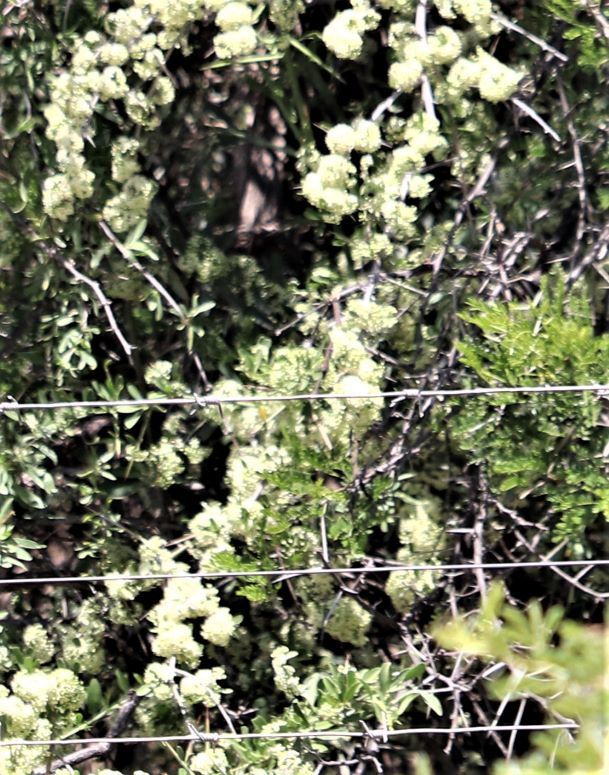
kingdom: Plantae
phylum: Tracheophyta
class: Magnoliopsida
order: Celastrales
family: Celastraceae
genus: Gymnosporia
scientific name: Gymnosporia buxifolia
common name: Common spike-thorn
